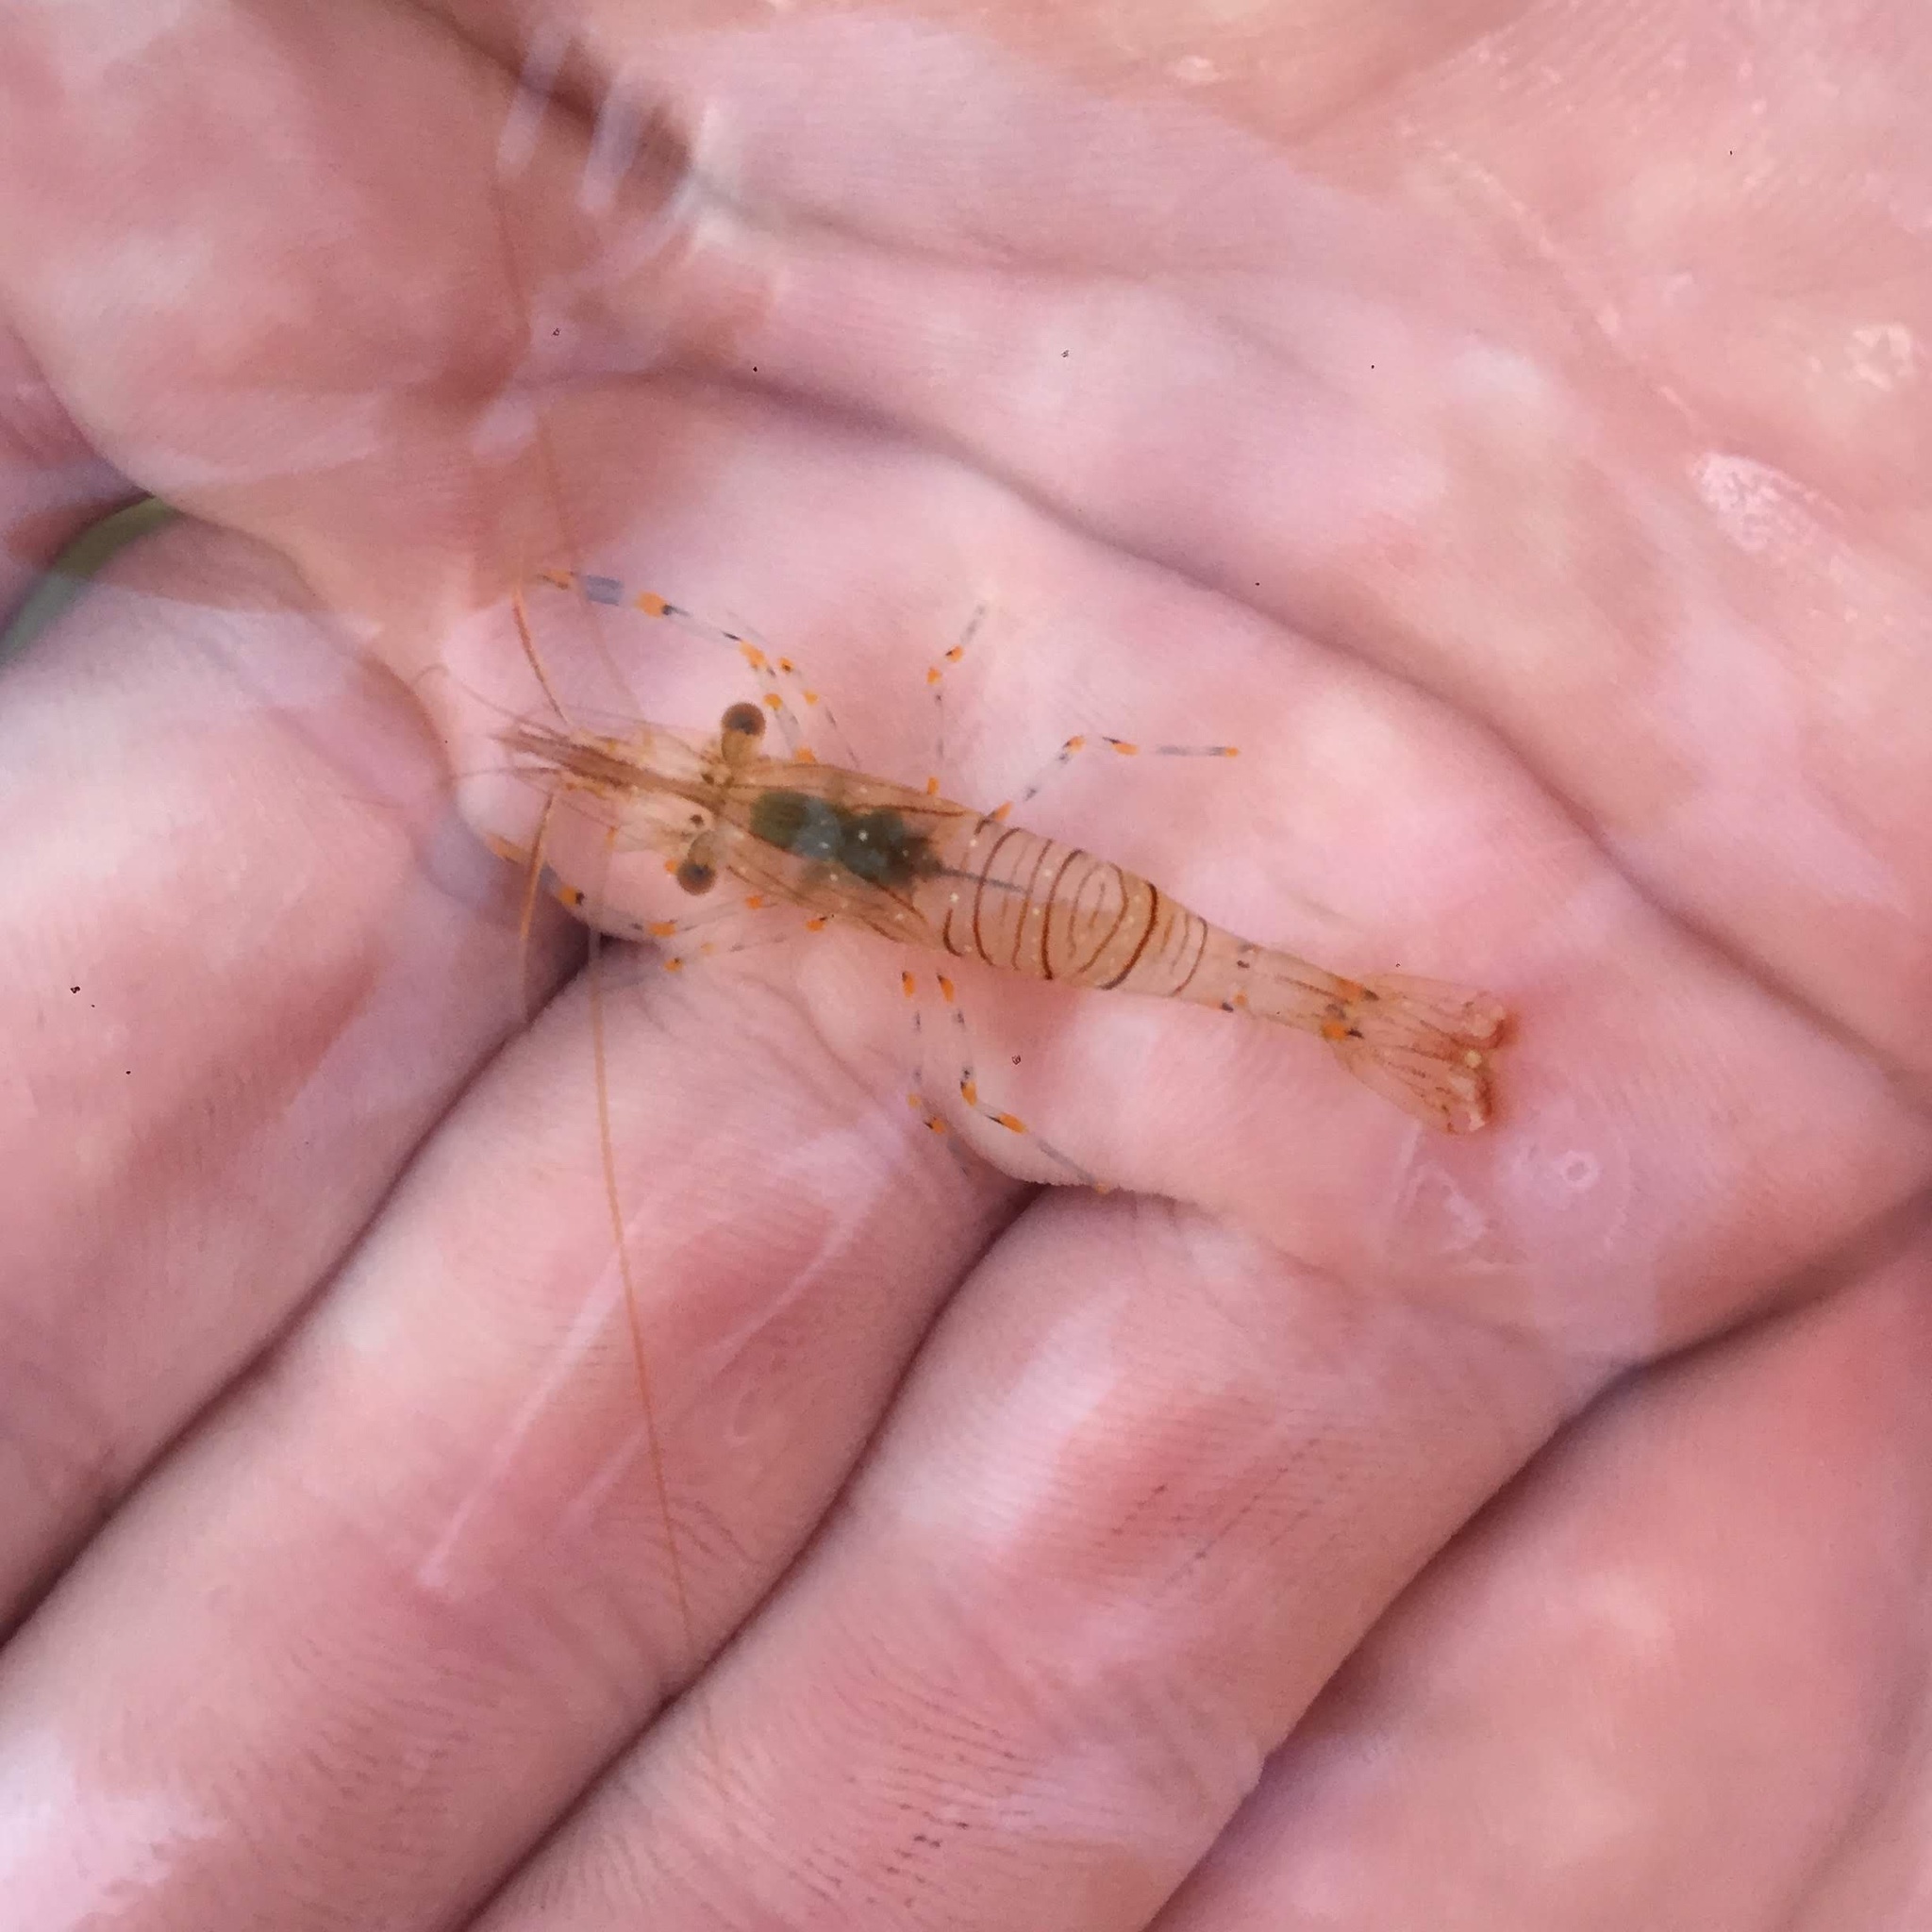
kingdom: Animalia
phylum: Arthropoda
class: Malacostraca
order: Decapoda
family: Palaemonidae
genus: Palaemon
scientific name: Palaemon elegans
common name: Grass prawm
